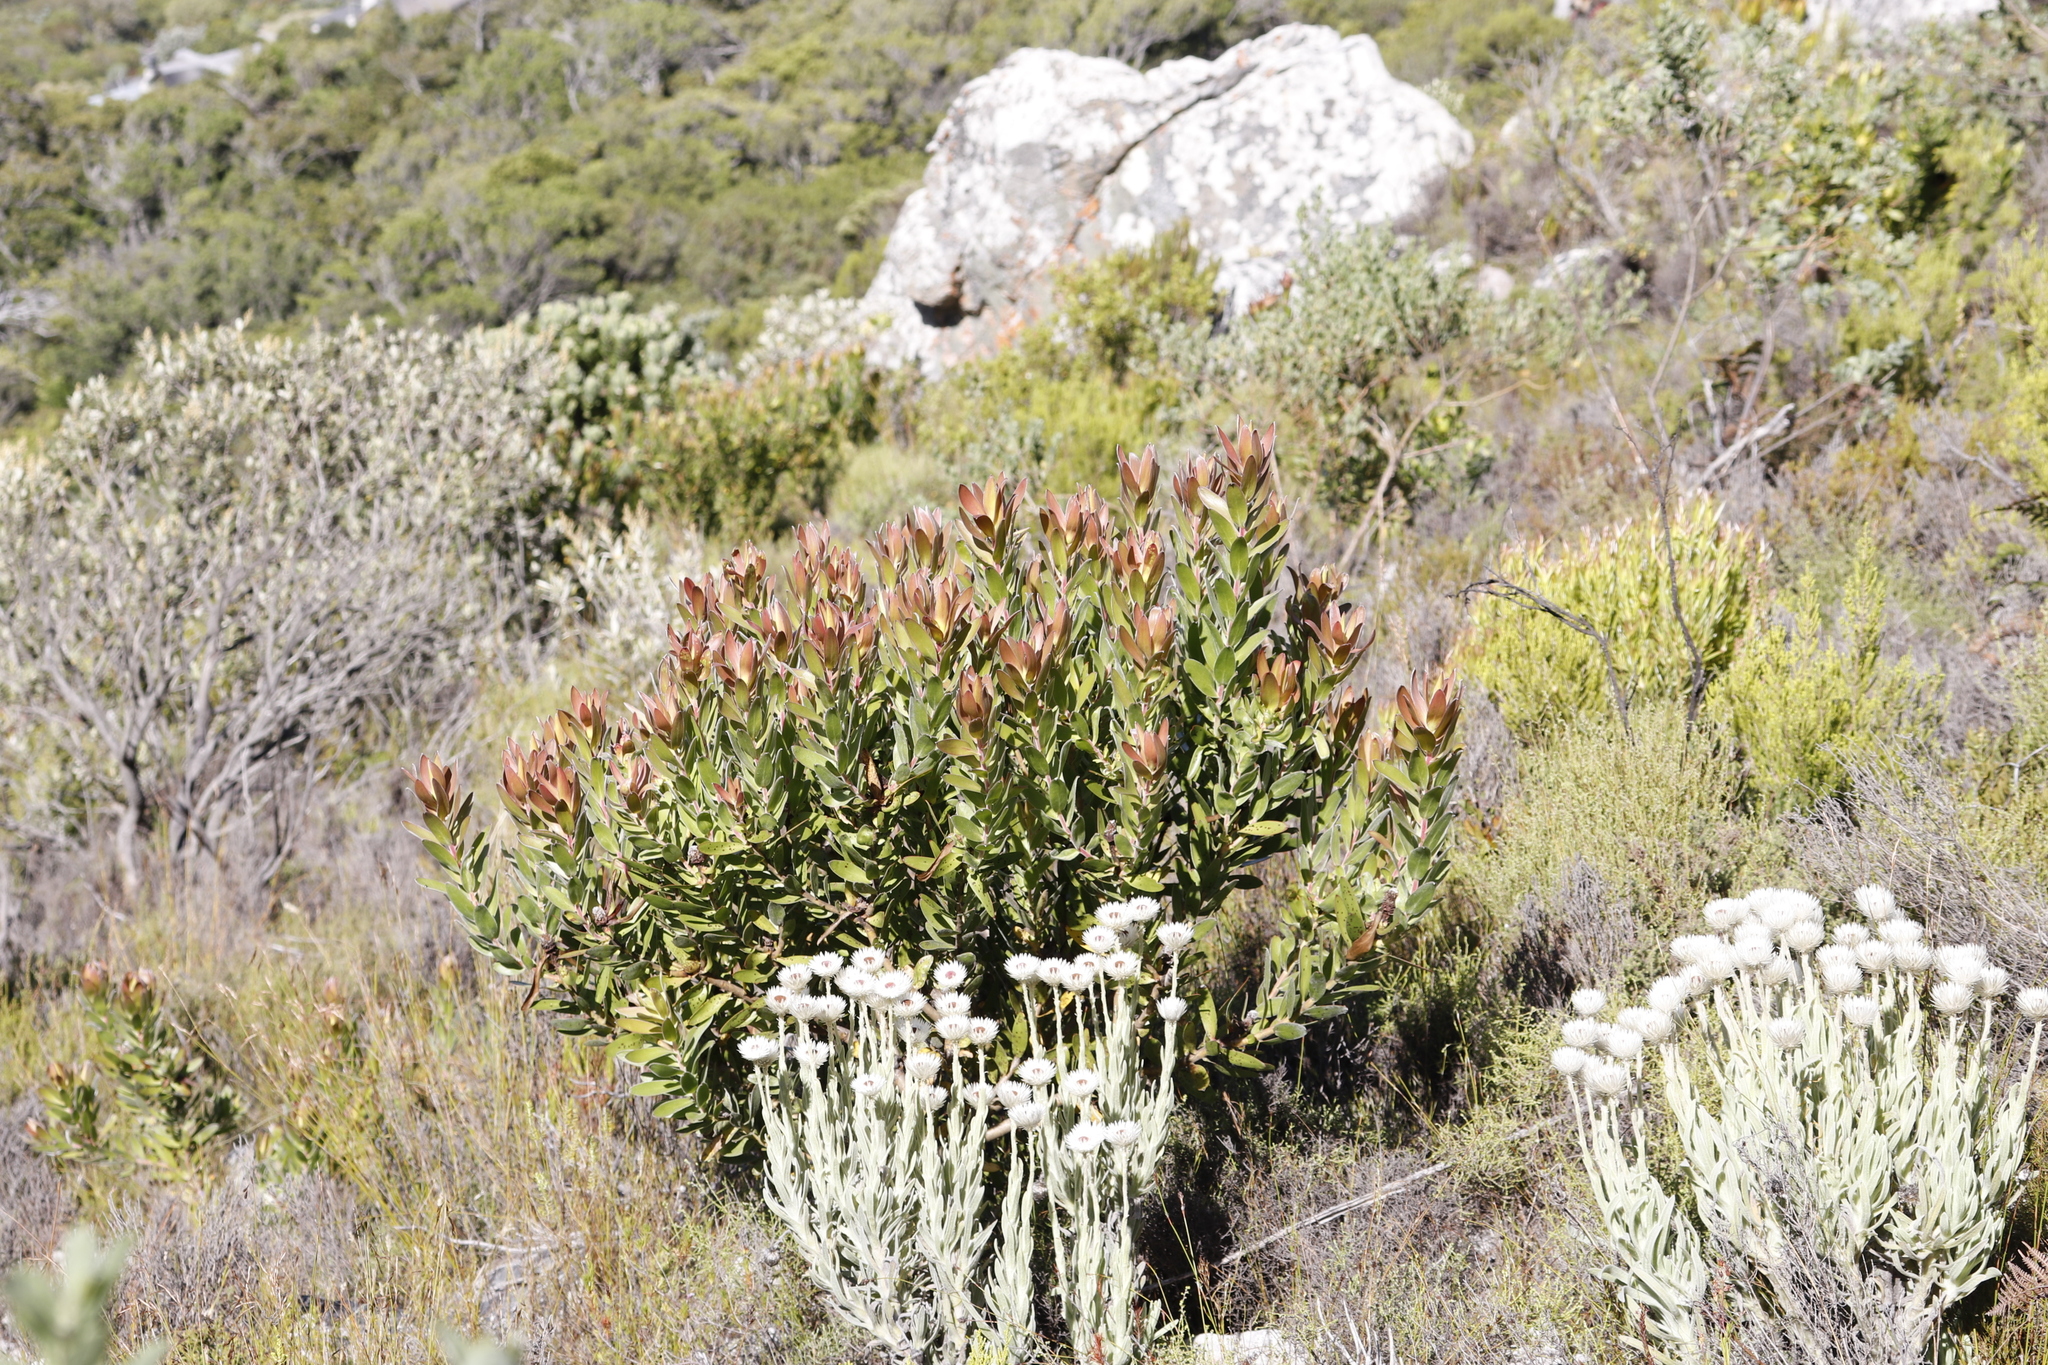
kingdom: Plantae
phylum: Tracheophyta
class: Magnoliopsida
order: Proteales
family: Proteaceae
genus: Leucadendron
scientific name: Leucadendron laureolum
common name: Golden sunshinebush
